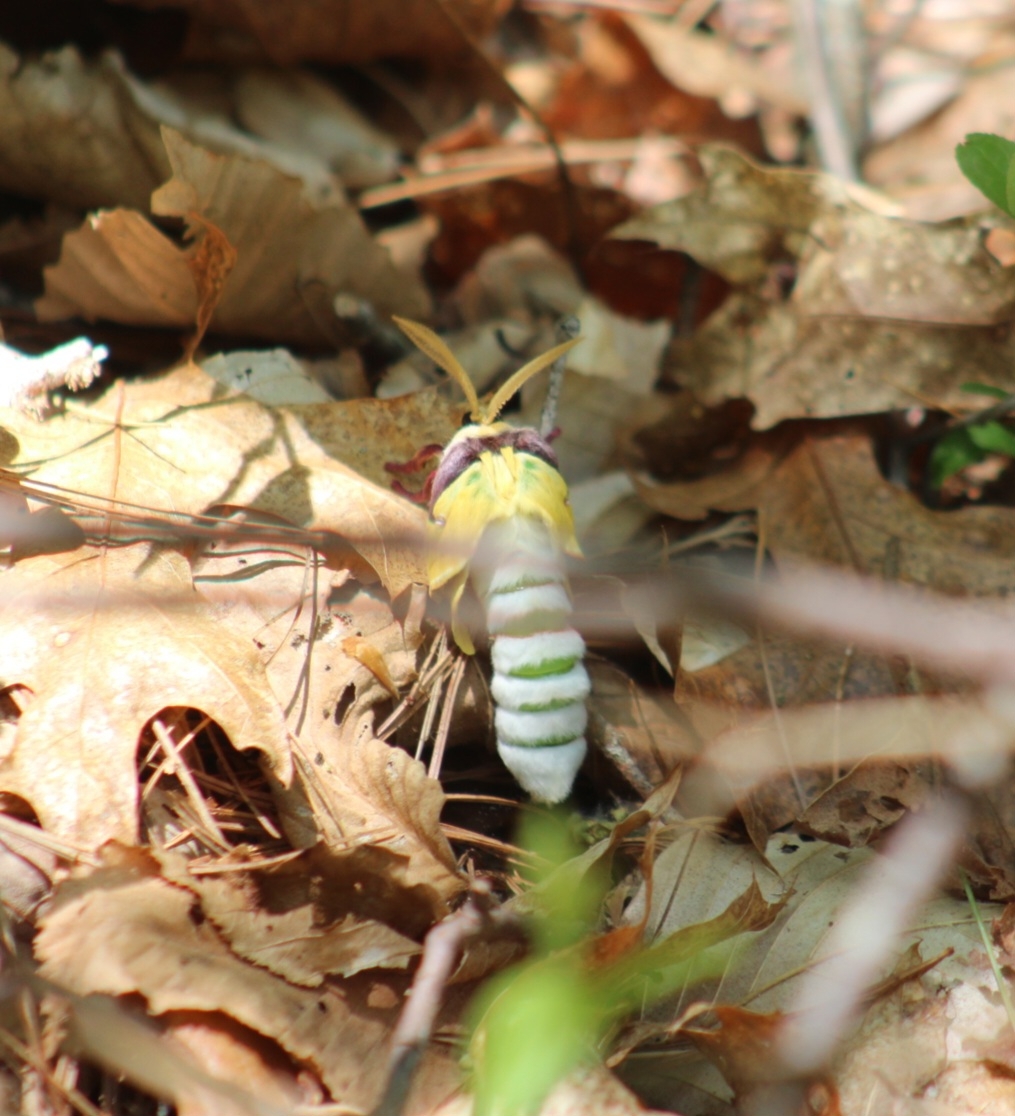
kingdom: Animalia
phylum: Arthropoda
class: Insecta
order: Lepidoptera
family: Saturniidae
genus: Actias
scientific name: Actias luna
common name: Luna moth
